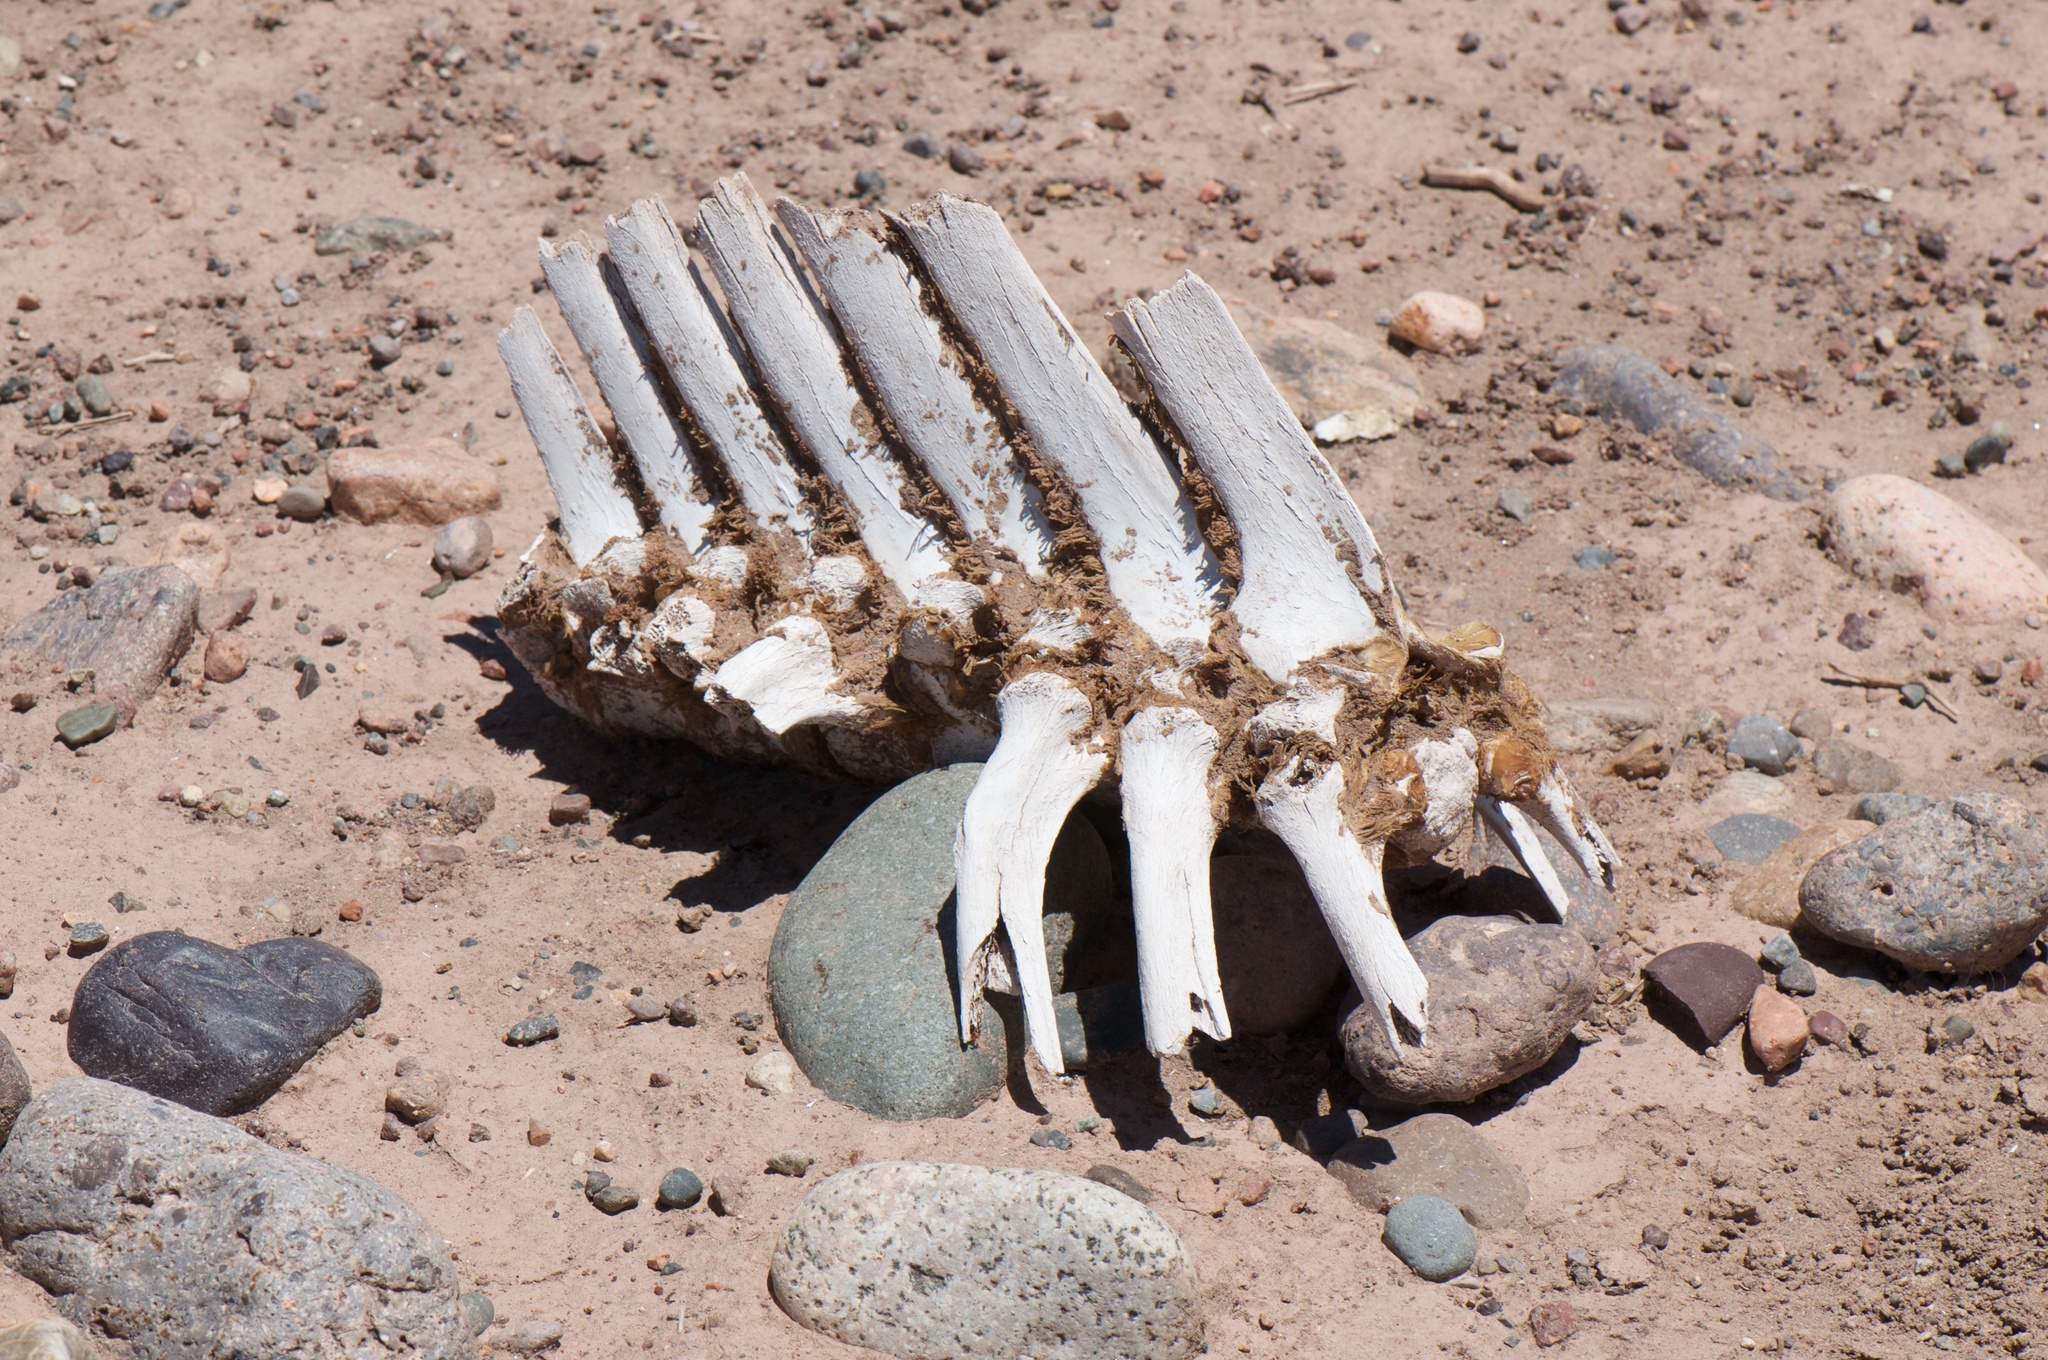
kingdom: Animalia
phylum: Chordata
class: Mammalia
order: Artiodactyla
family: Tayassuidae
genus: Pecari
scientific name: Pecari tajacu
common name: Collared peccary
